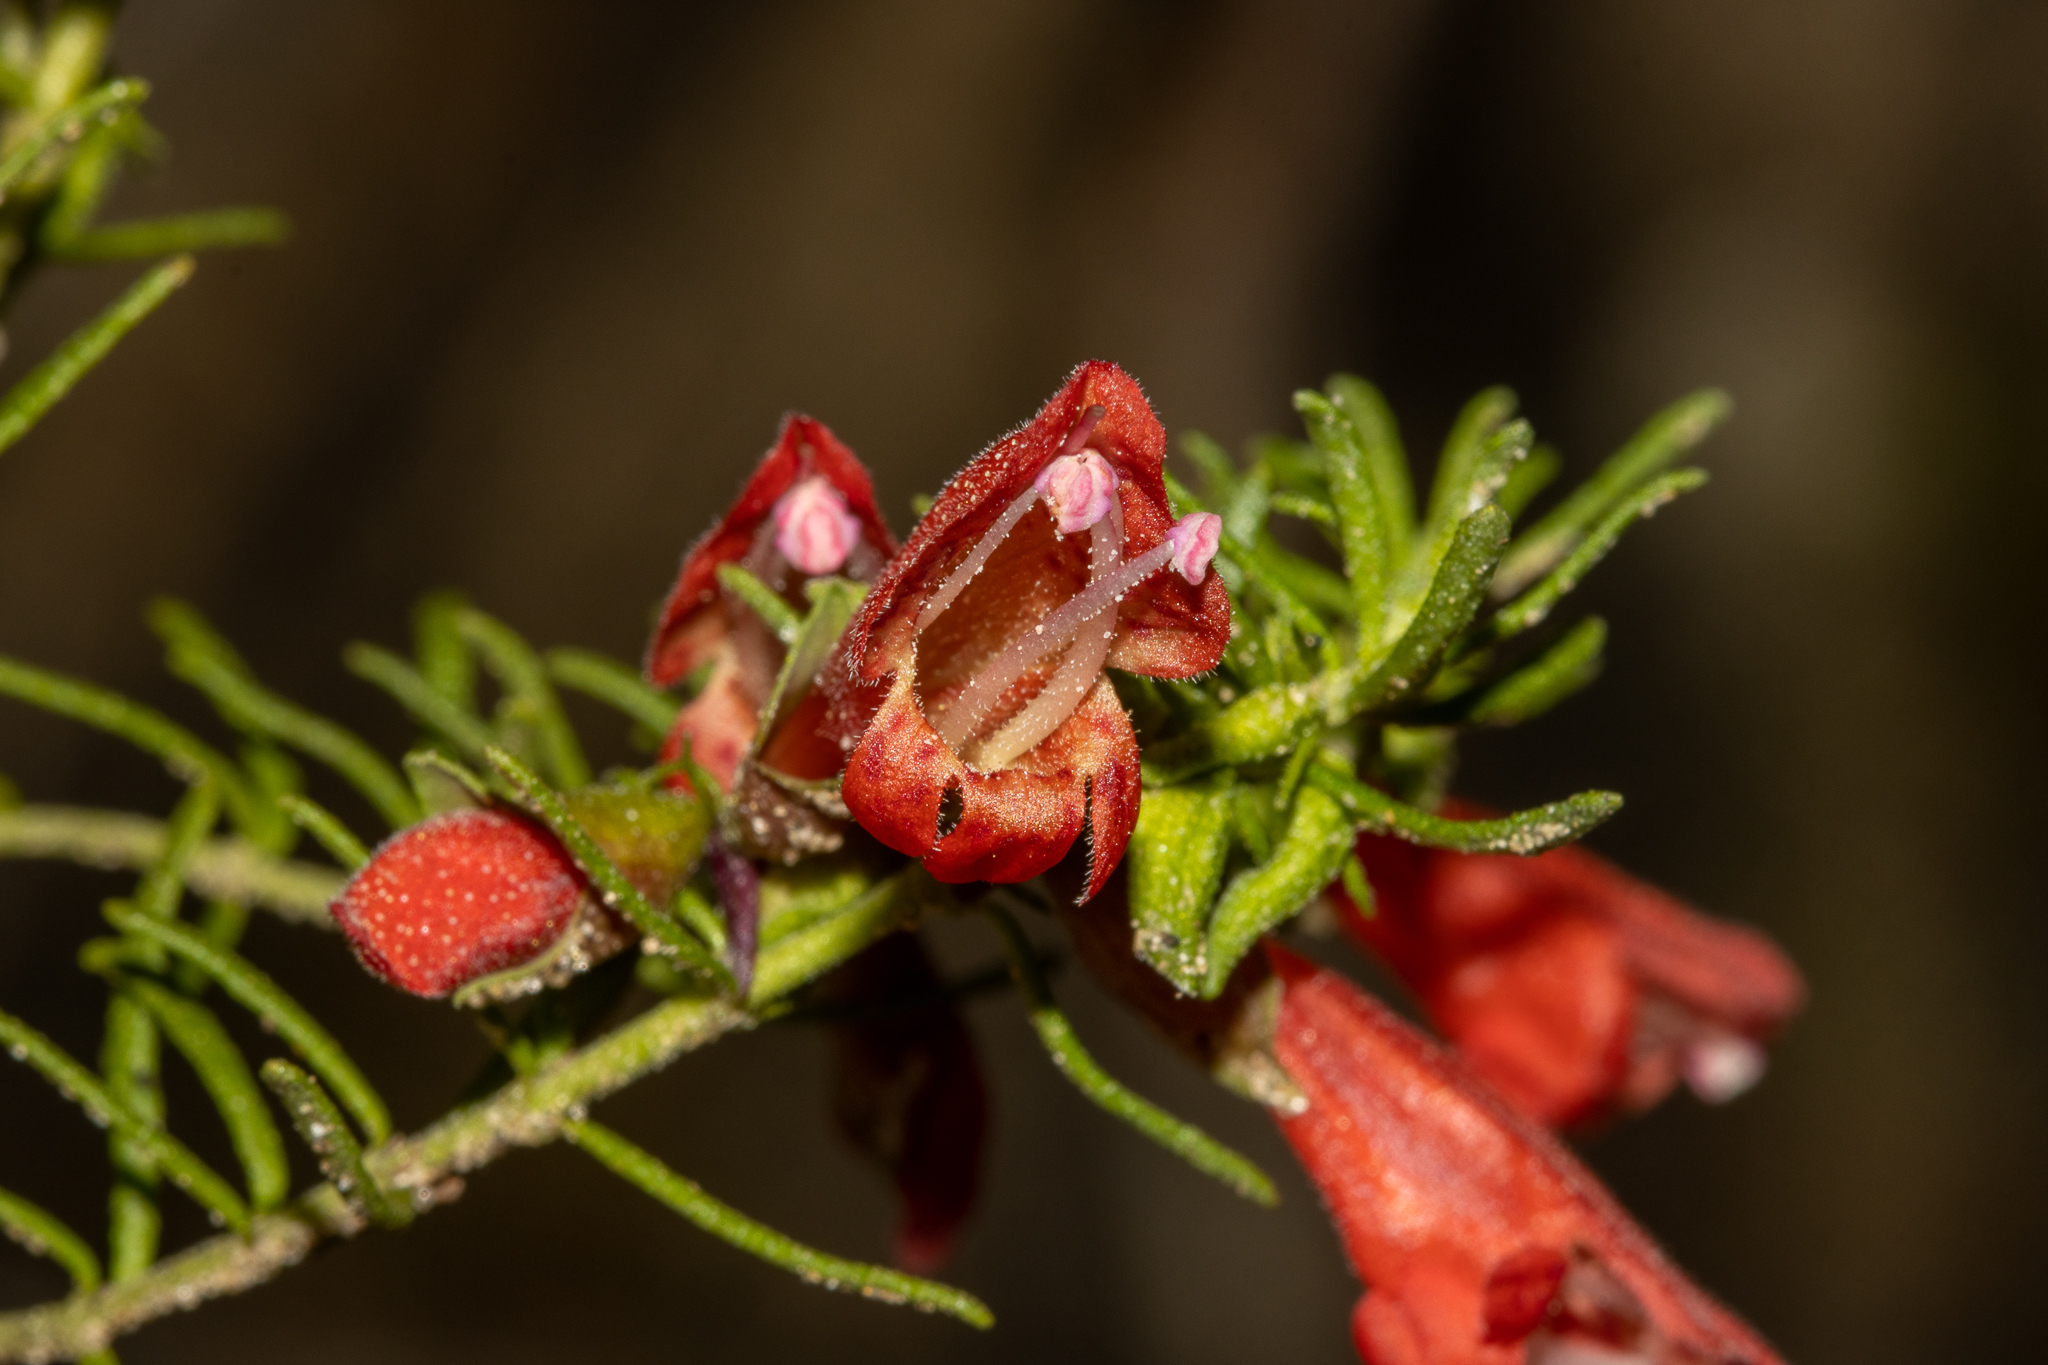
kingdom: Plantae
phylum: Tracheophyta
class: Magnoliopsida
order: Lamiales
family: Lamiaceae
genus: Prostanthera
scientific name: Prostanthera aspalathoides
